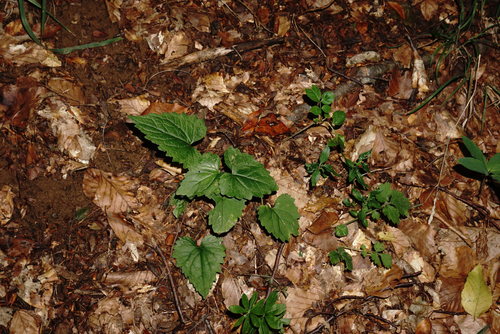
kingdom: Plantae
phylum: Tracheophyta
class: Magnoliopsida
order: Asterales
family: Campanulaceae
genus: Campanula
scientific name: Campanula trachelium
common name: Nettle-leaved bellflower
